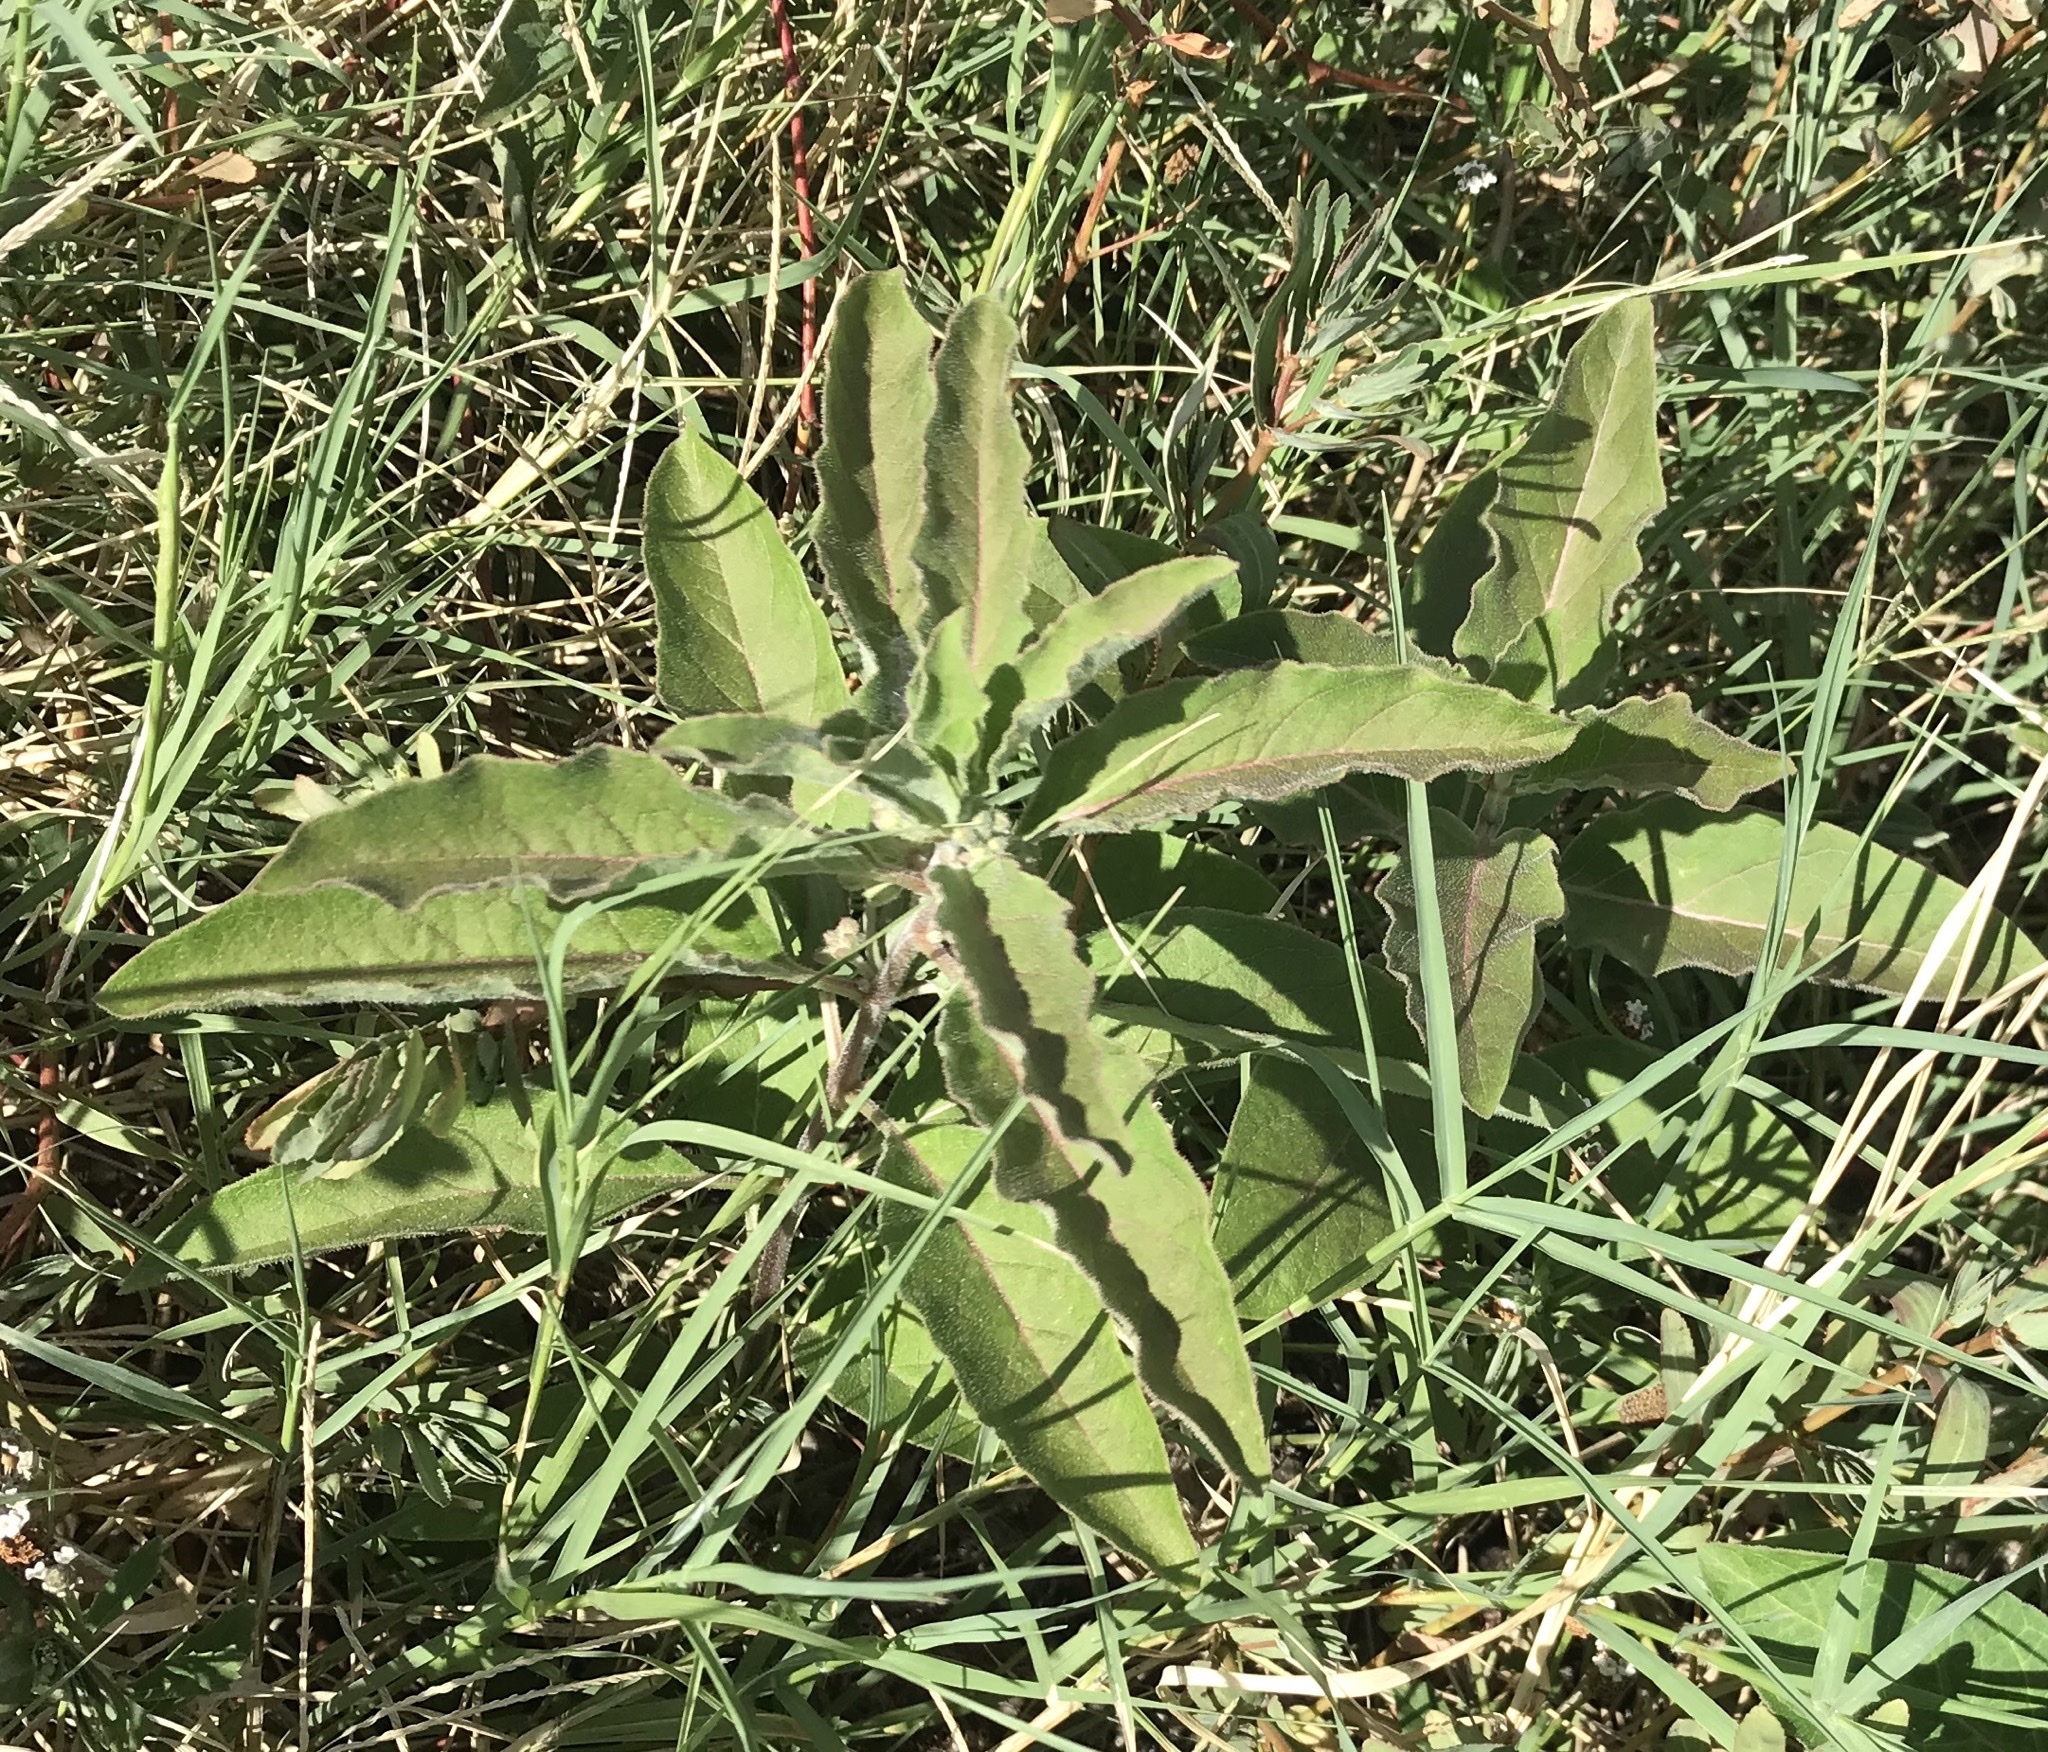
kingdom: Plantae
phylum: Tracheophyta
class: Magnoliopsida
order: Gentianales
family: Apocynaceae
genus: Asclepias
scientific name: Asclepias oenotheroides
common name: Zizotes milkweed
